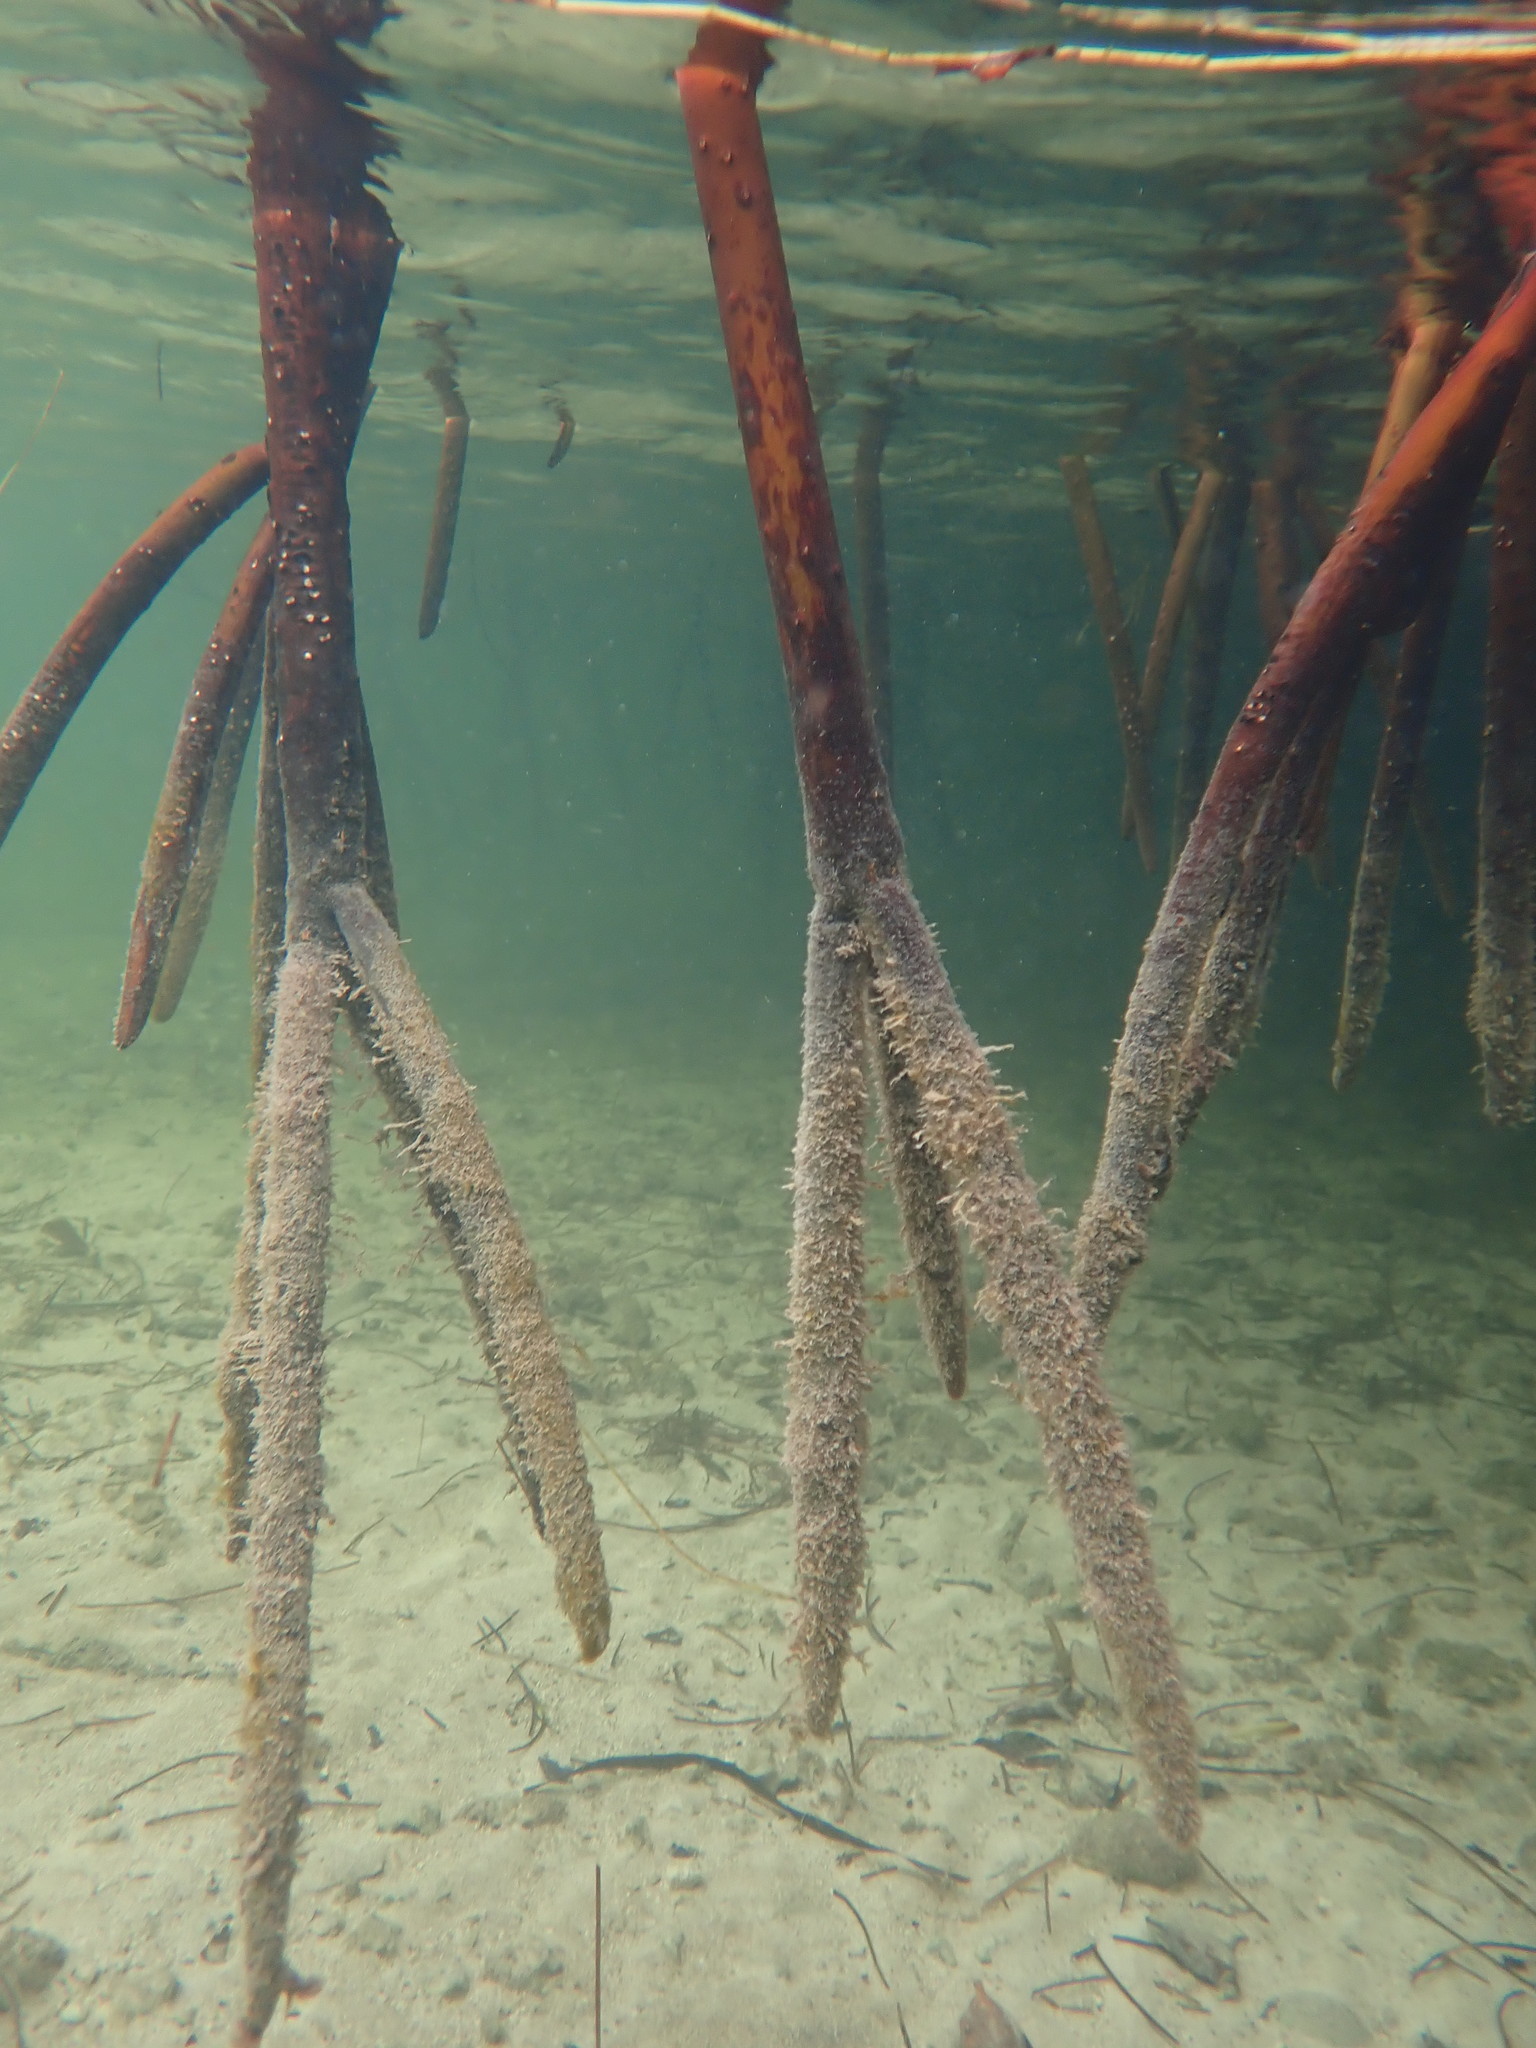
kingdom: Plantae
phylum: Tracheophyta
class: Magnoliopsida
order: Malpighiales
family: Rhizophoraceae
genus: Rhizophora
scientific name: Rhizophora mangle
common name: Red mangrove
